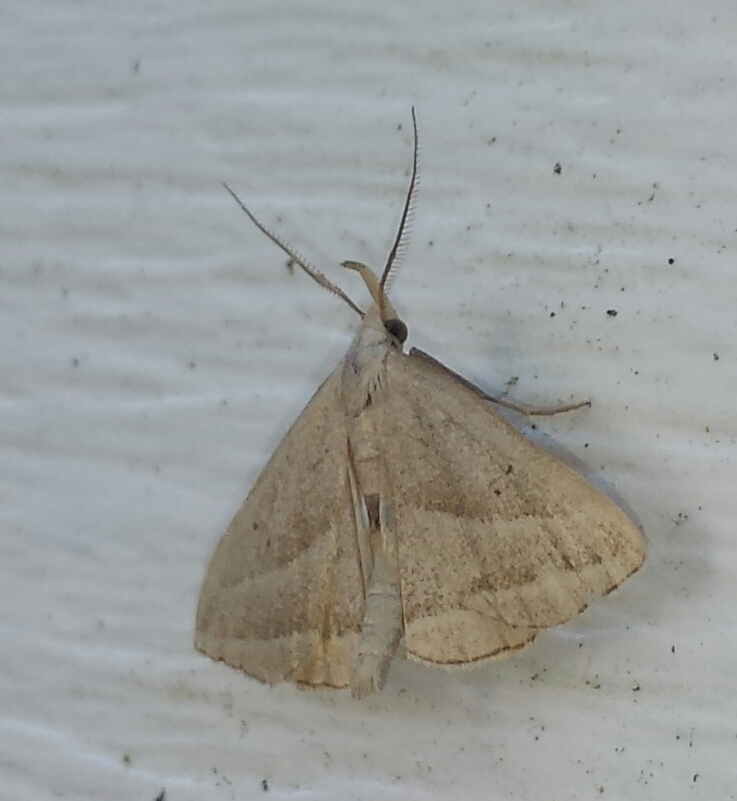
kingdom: Animalia
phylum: Arthropoda
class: Insecta
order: Lepidoptera
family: Erebidae
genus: Macrochilo
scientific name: Macrochilo absorptalis
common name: Slant-lined owlet
